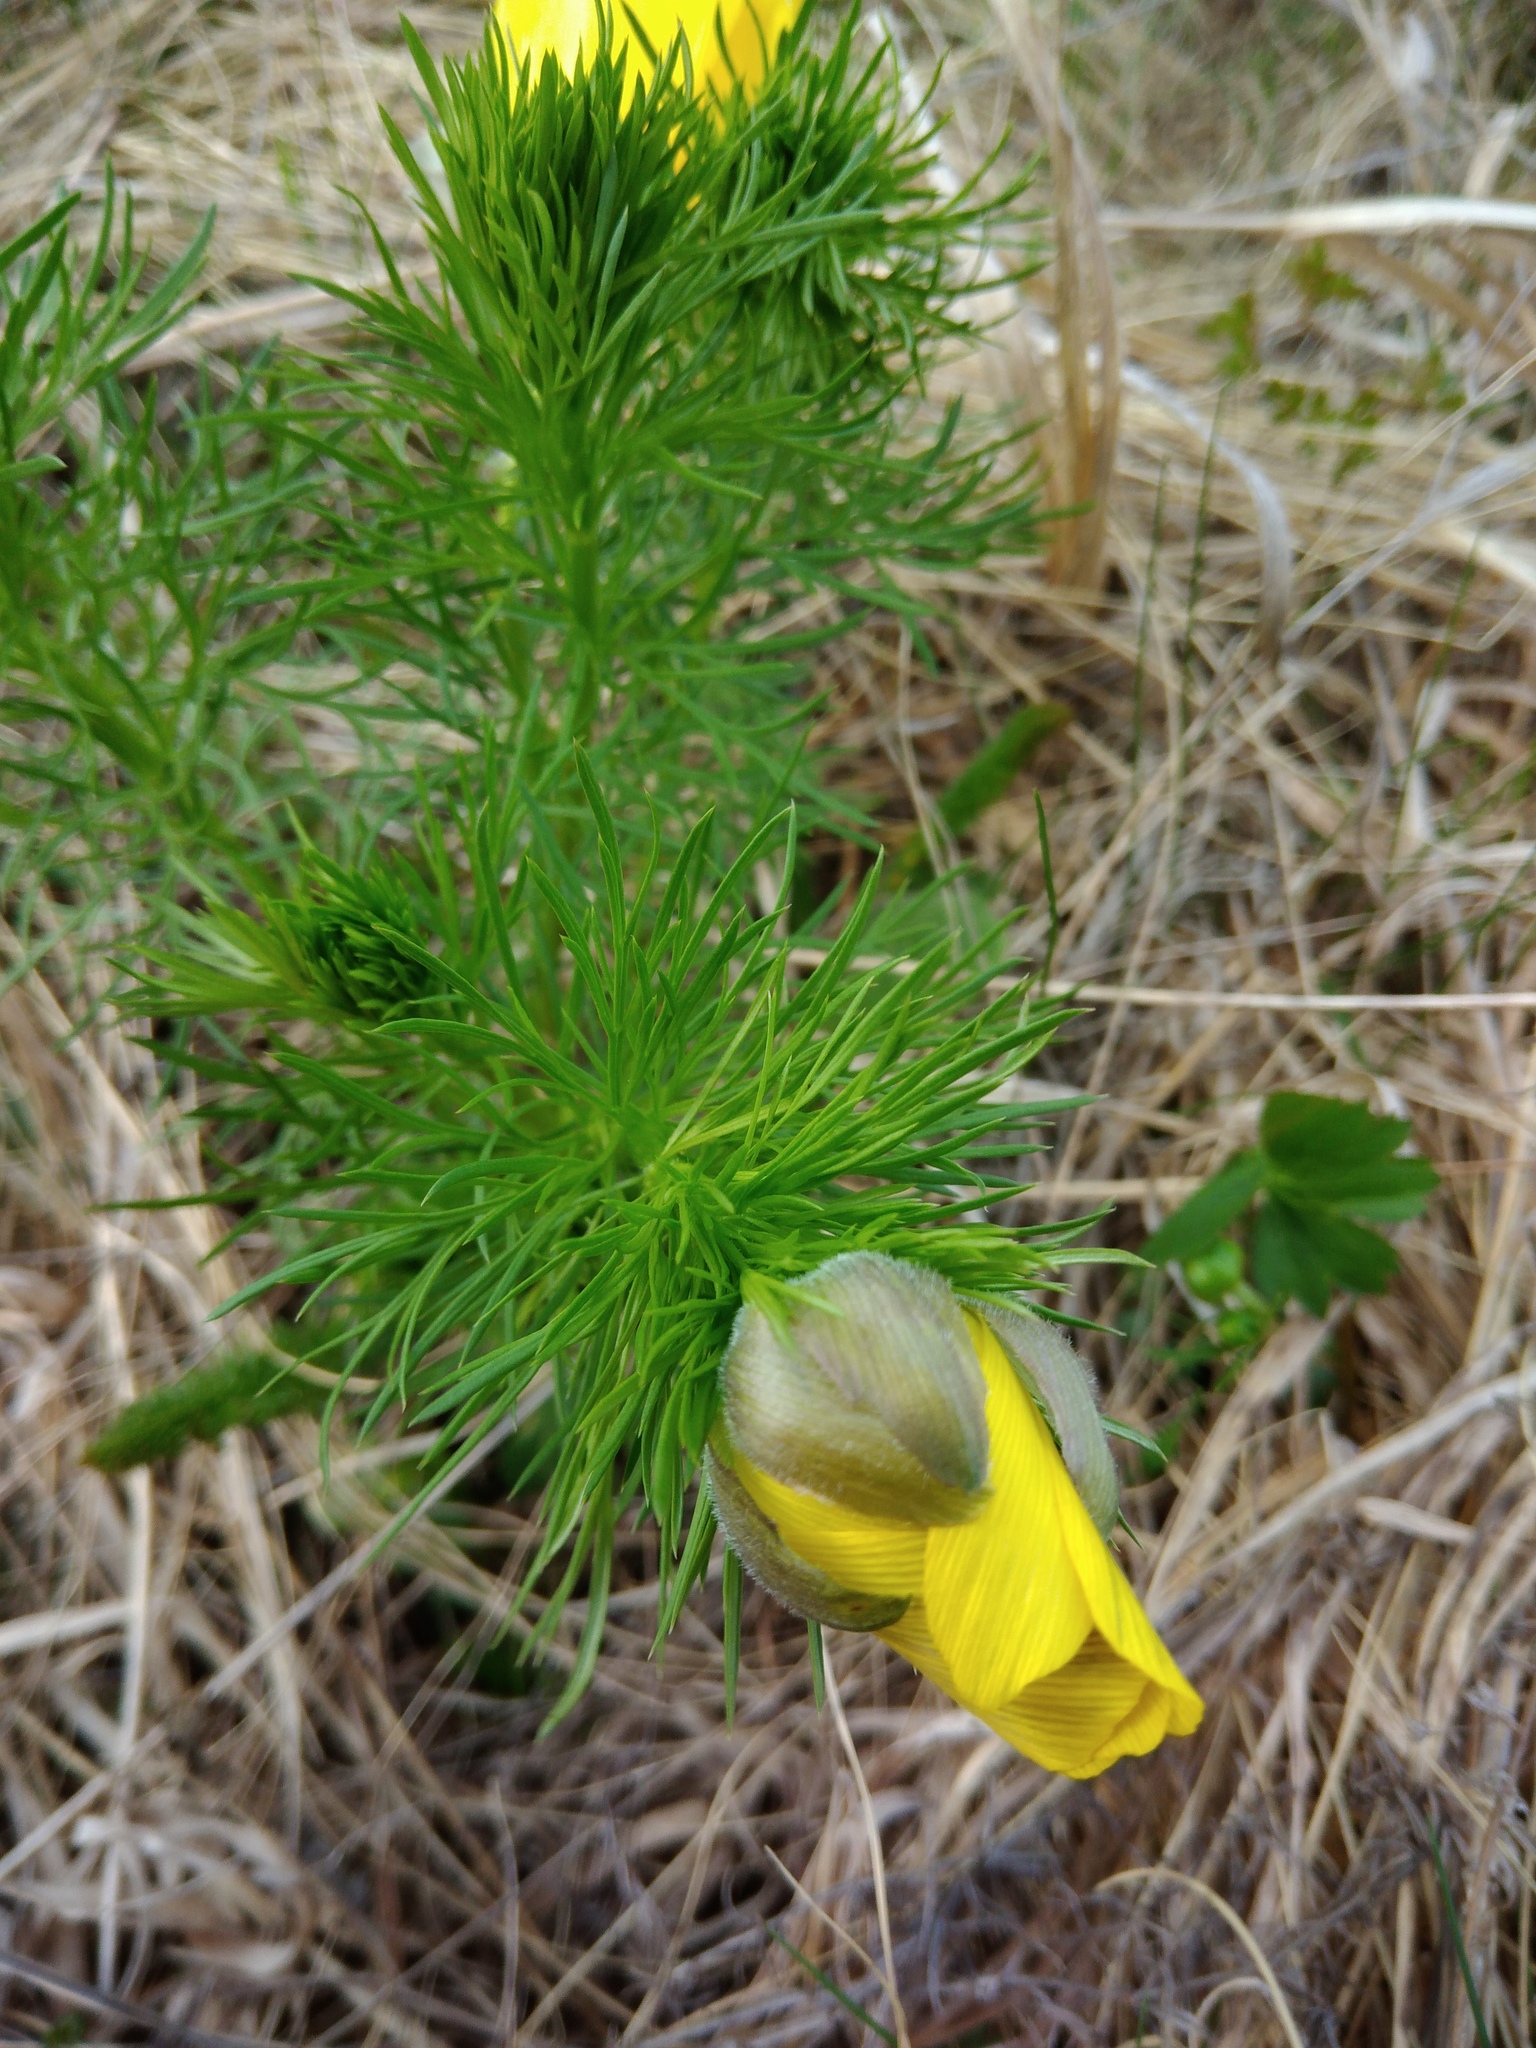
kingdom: Plantae
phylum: Tracheophyta
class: Magnoliopsida
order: Ranunculales
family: Ranunculaceae
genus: Adonis
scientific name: Adonis vernalis
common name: Yellow pheasants-eye
